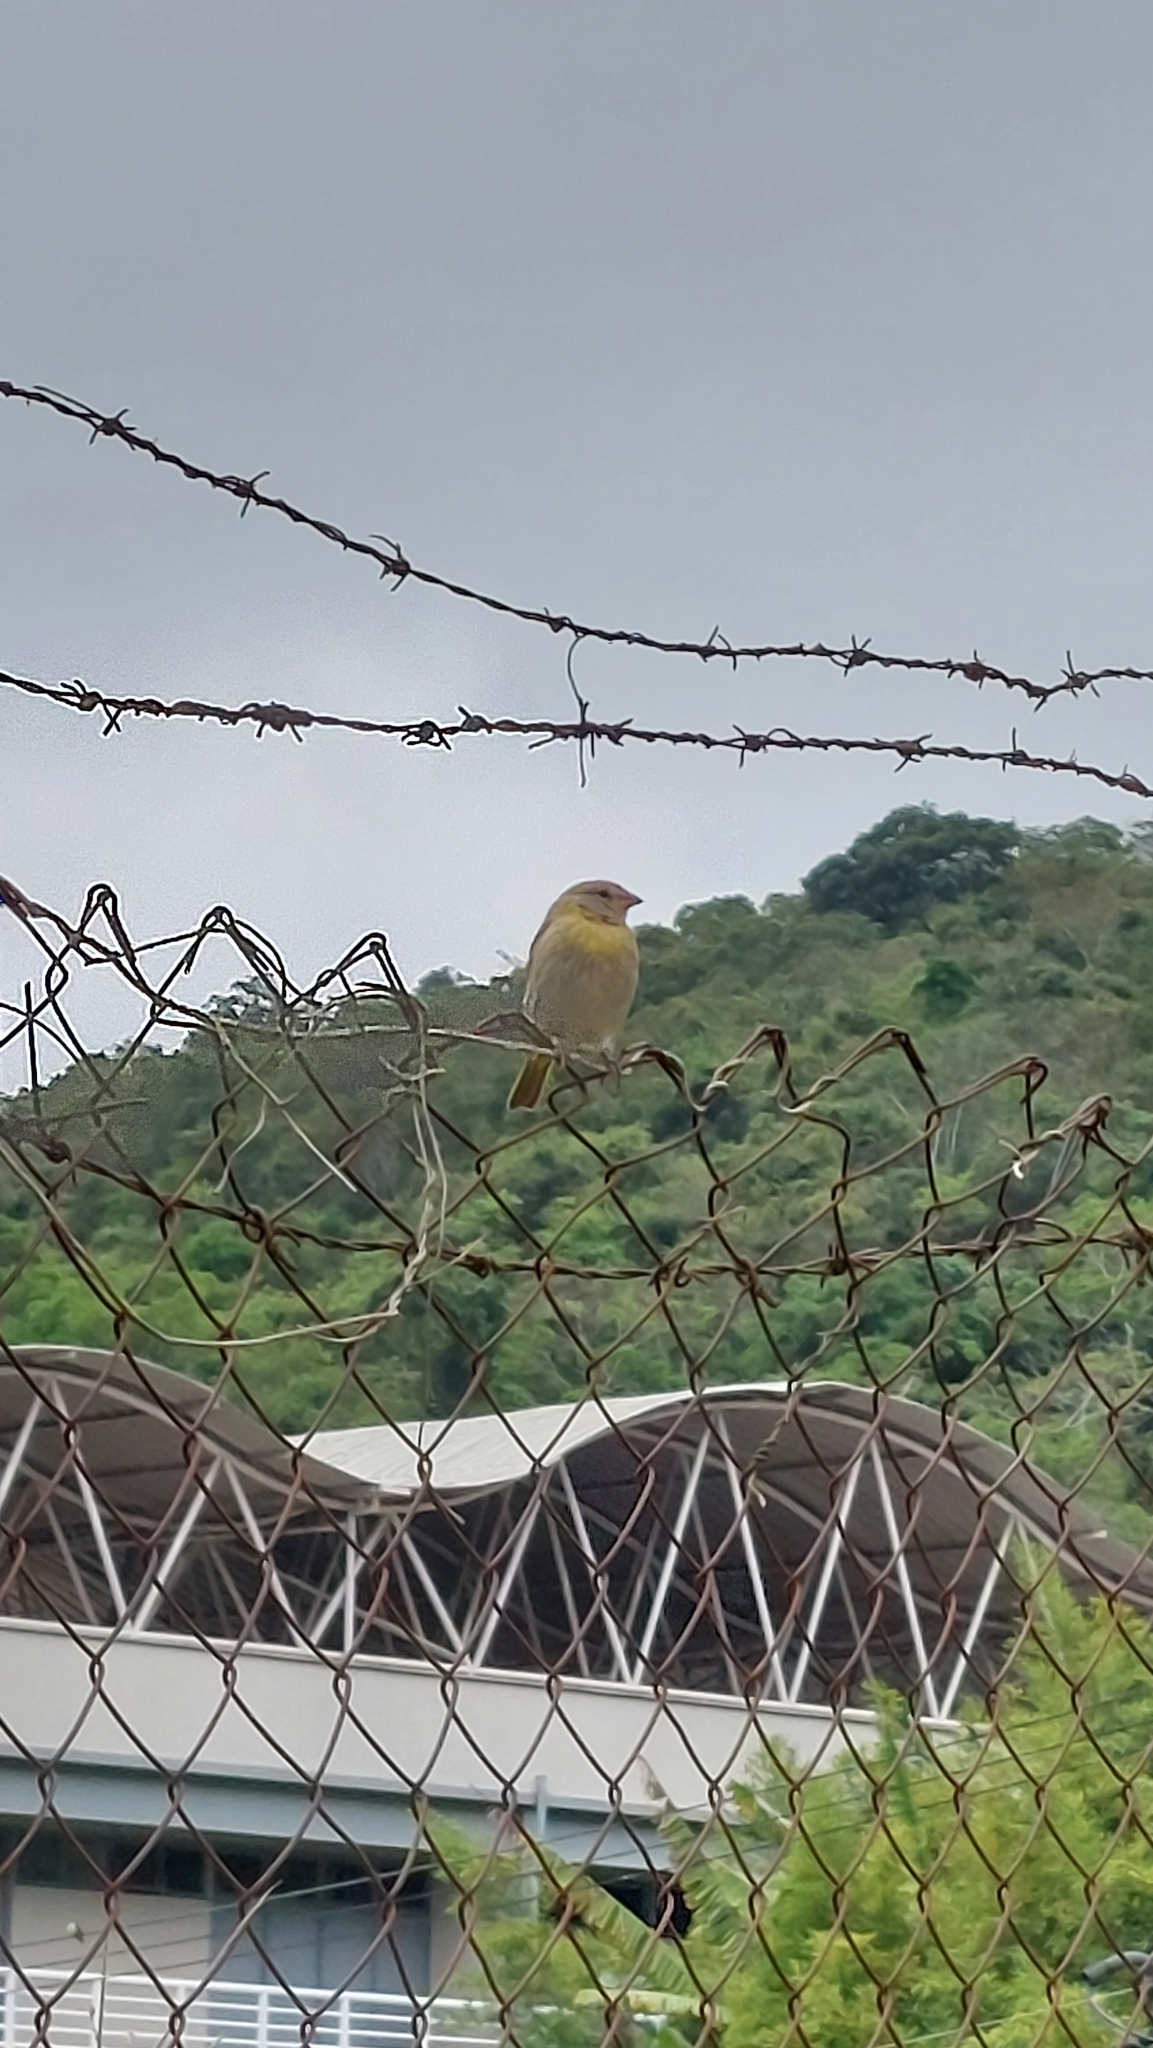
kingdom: Animalia
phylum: Chordata
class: Aves
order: Passeriformes
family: Thraupidae
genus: Sicalis
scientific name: Sicalis flaveola
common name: Saffron finch
